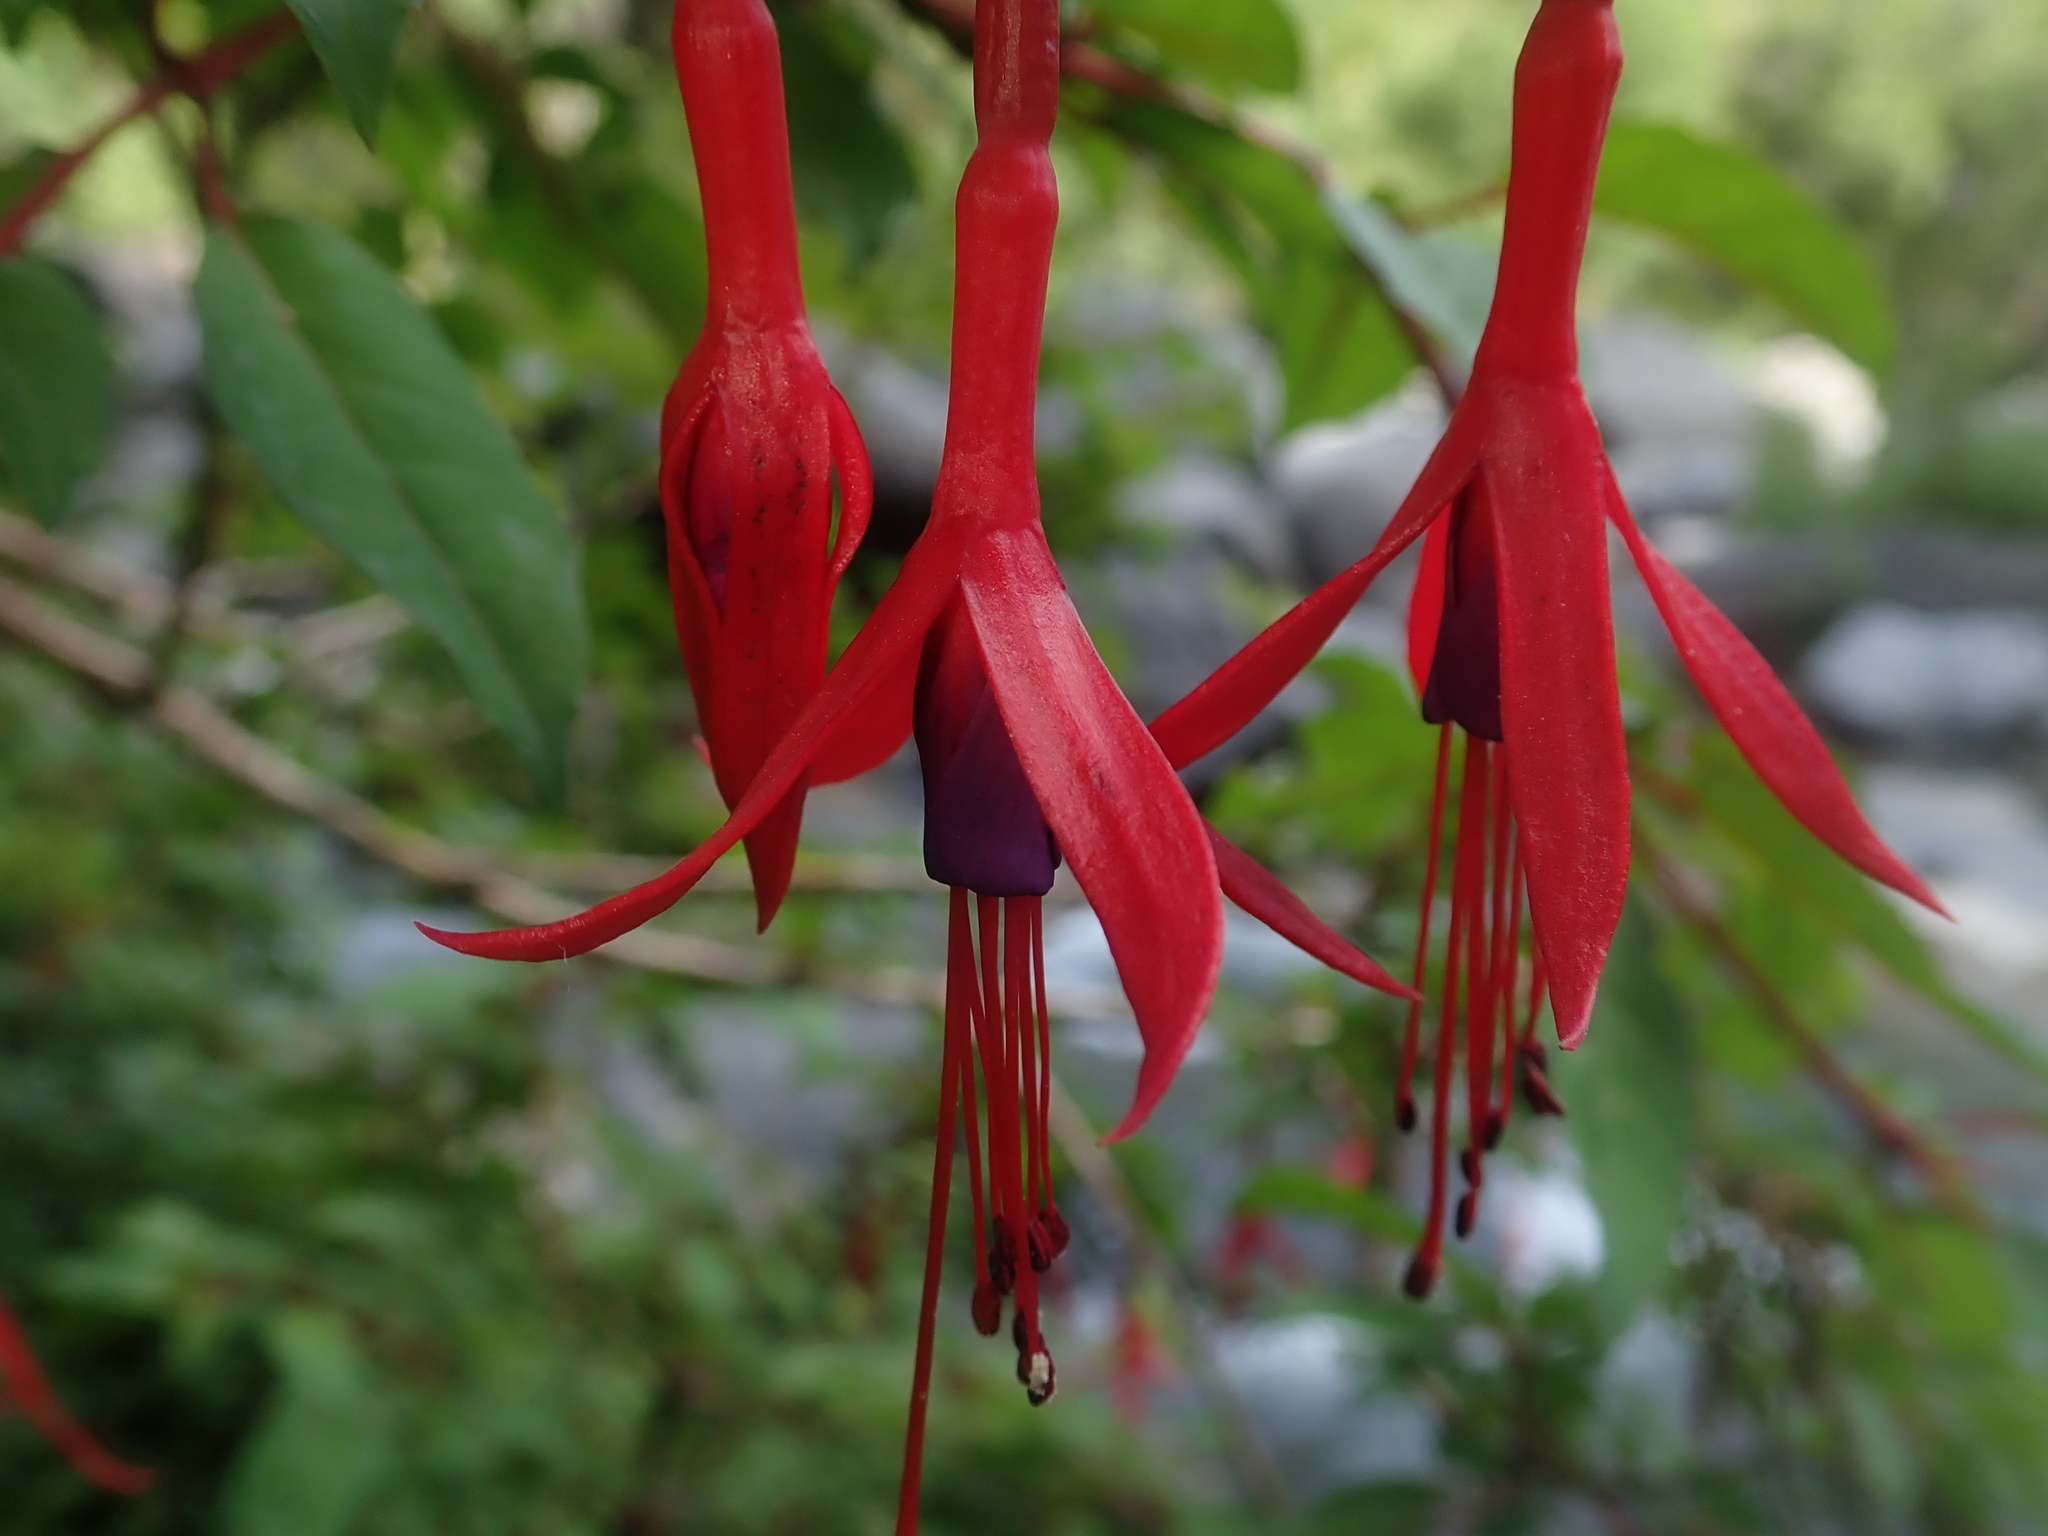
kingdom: Plantae
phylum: Tracheophyta
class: Magnoliopsida
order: Myrtales
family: Onagraceae
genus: Fuchsia
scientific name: Fuchsia magellanica
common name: Hardy fuchsia
